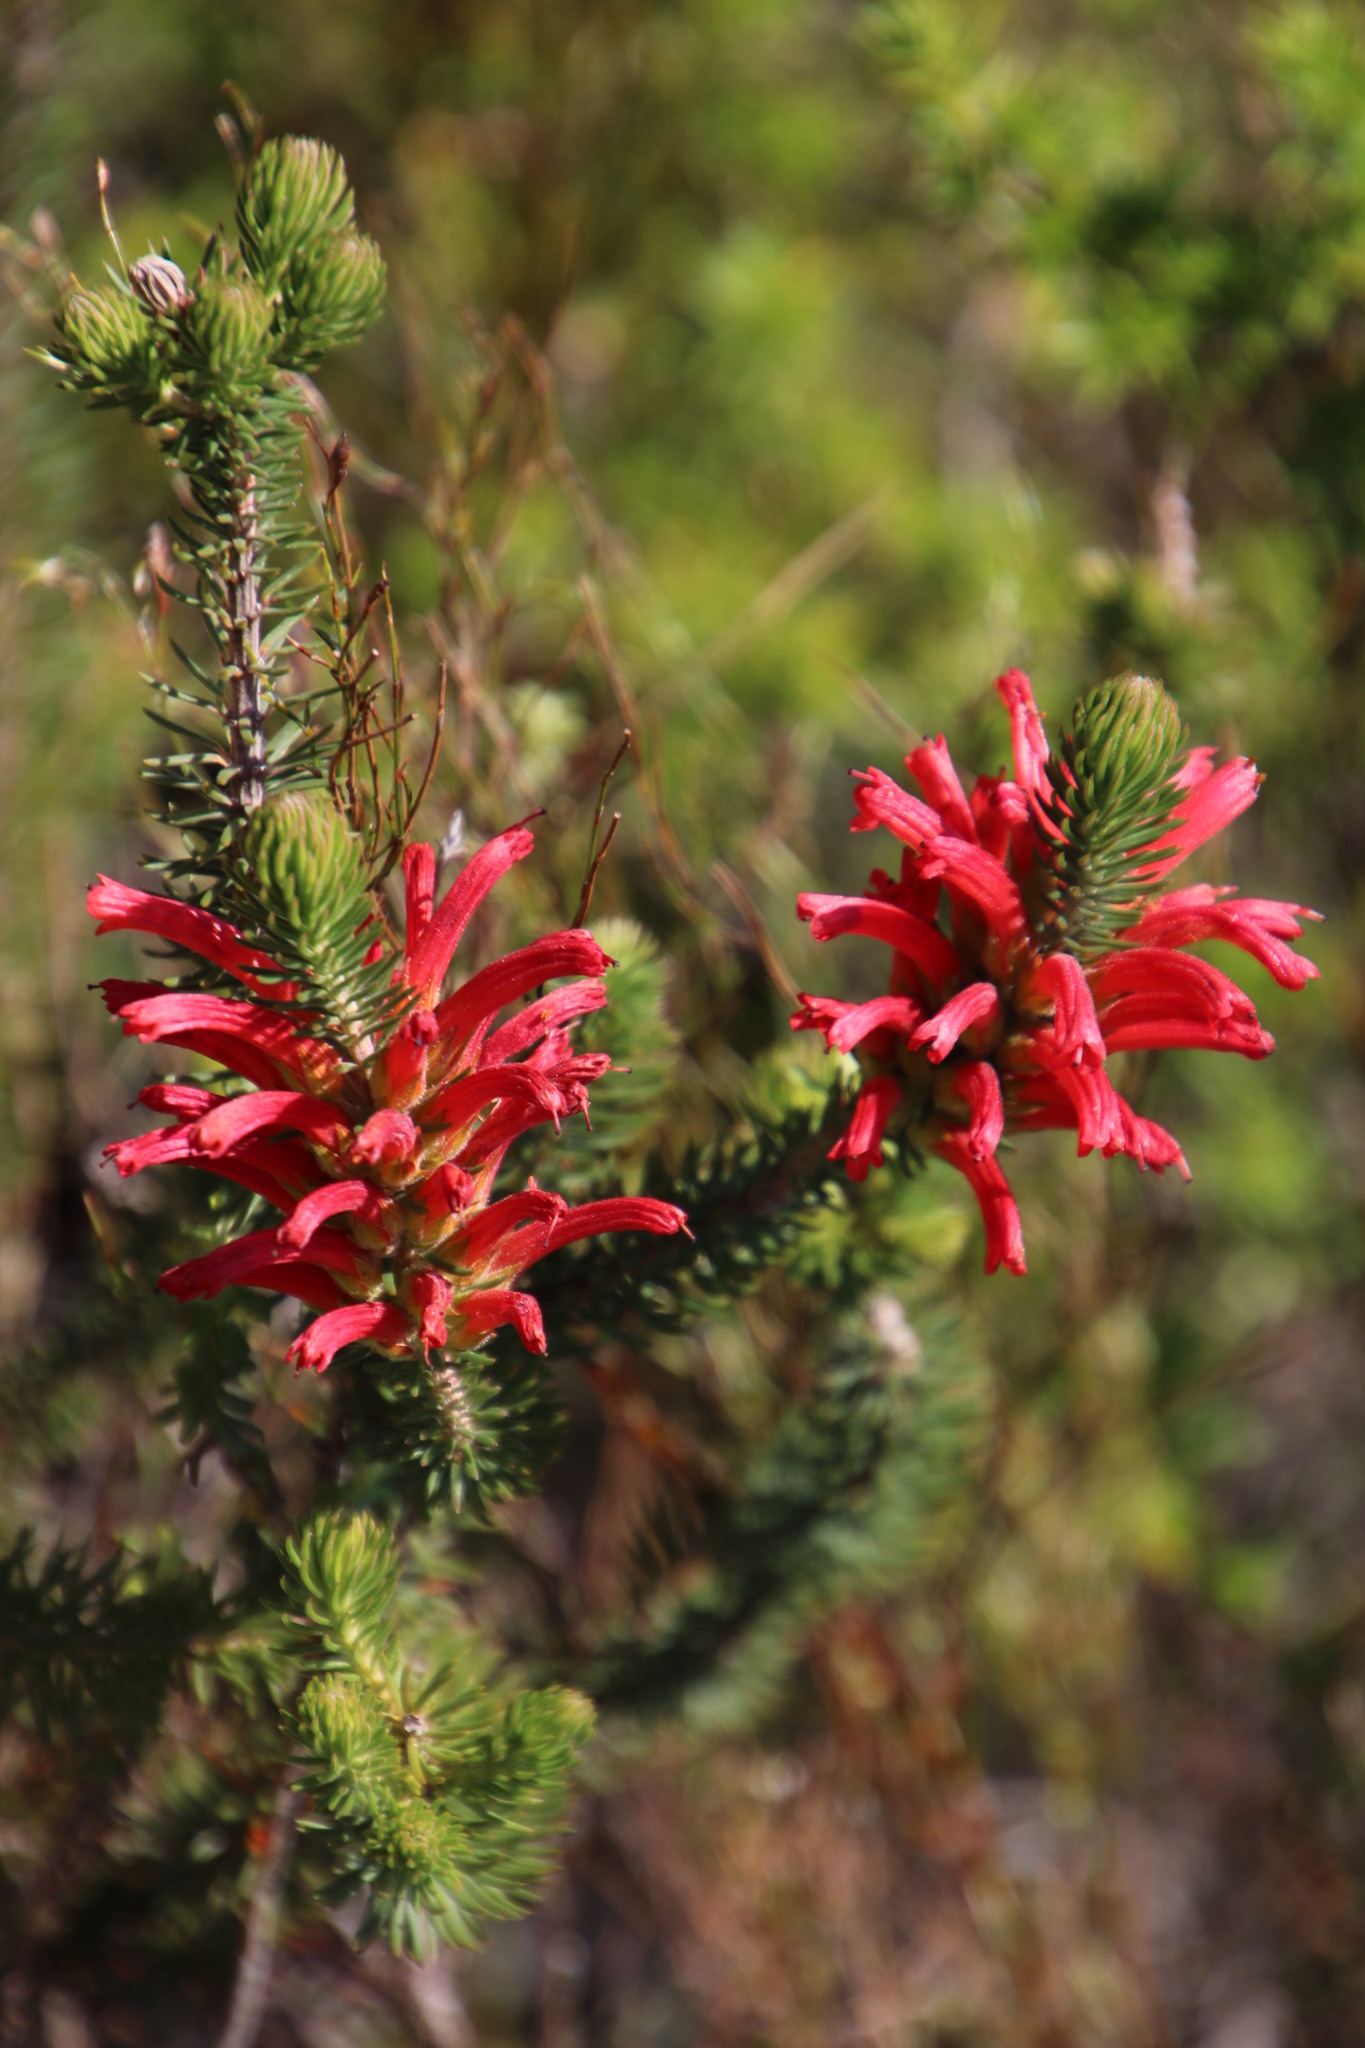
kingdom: Plantae
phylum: Tracheophyta
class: Magnoliopsida
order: Ericales
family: Ericaceae
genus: Erica
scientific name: Erica abietina
